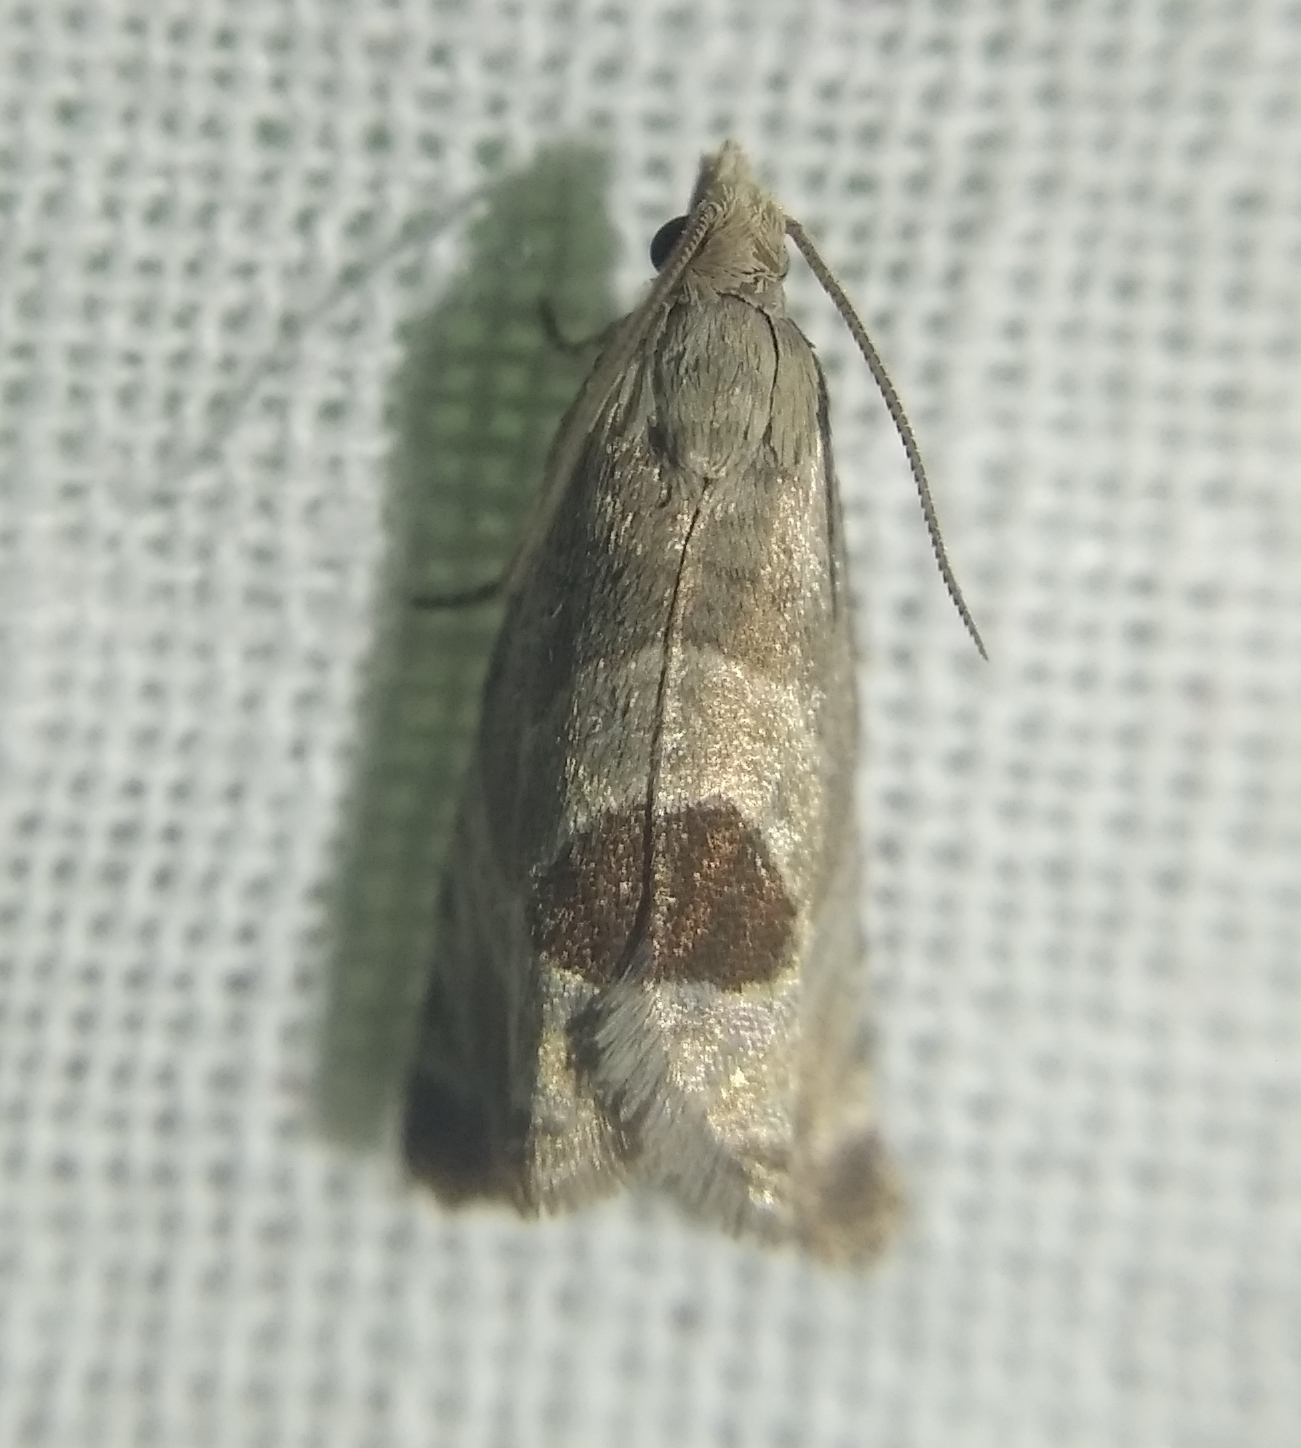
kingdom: Animalia
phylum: Arthropoda
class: Insecta
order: Lepidoptera
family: Tortricidae
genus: Notocelia
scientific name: Notocelia uddmanniana
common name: Bramble shoot moth
